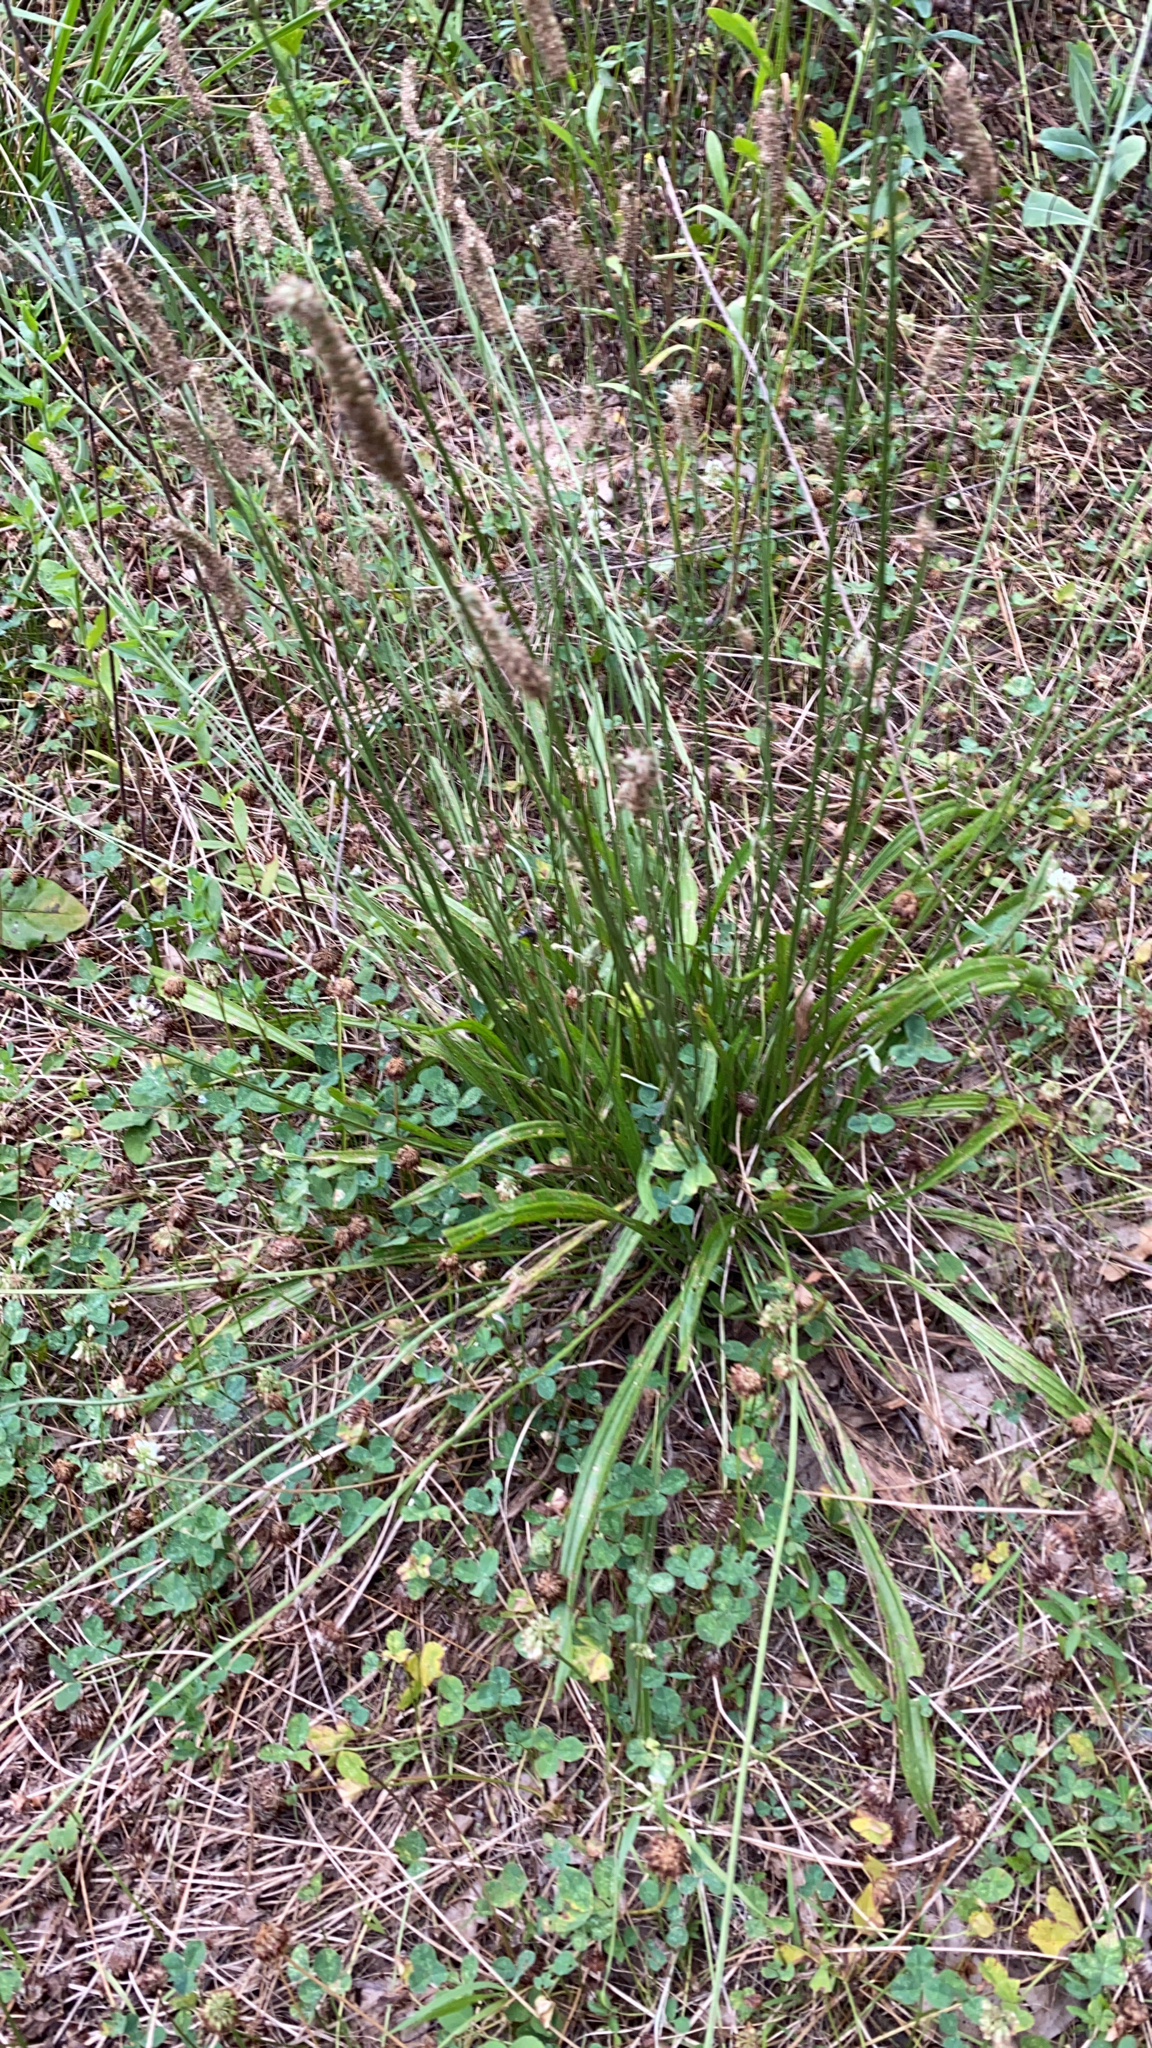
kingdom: Plantae
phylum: Tracheophyta
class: Magnoliopsida
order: Lamiales
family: Plantaginaceae
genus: Plantago
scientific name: Plantago lanceolata
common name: Ribwort plantain
